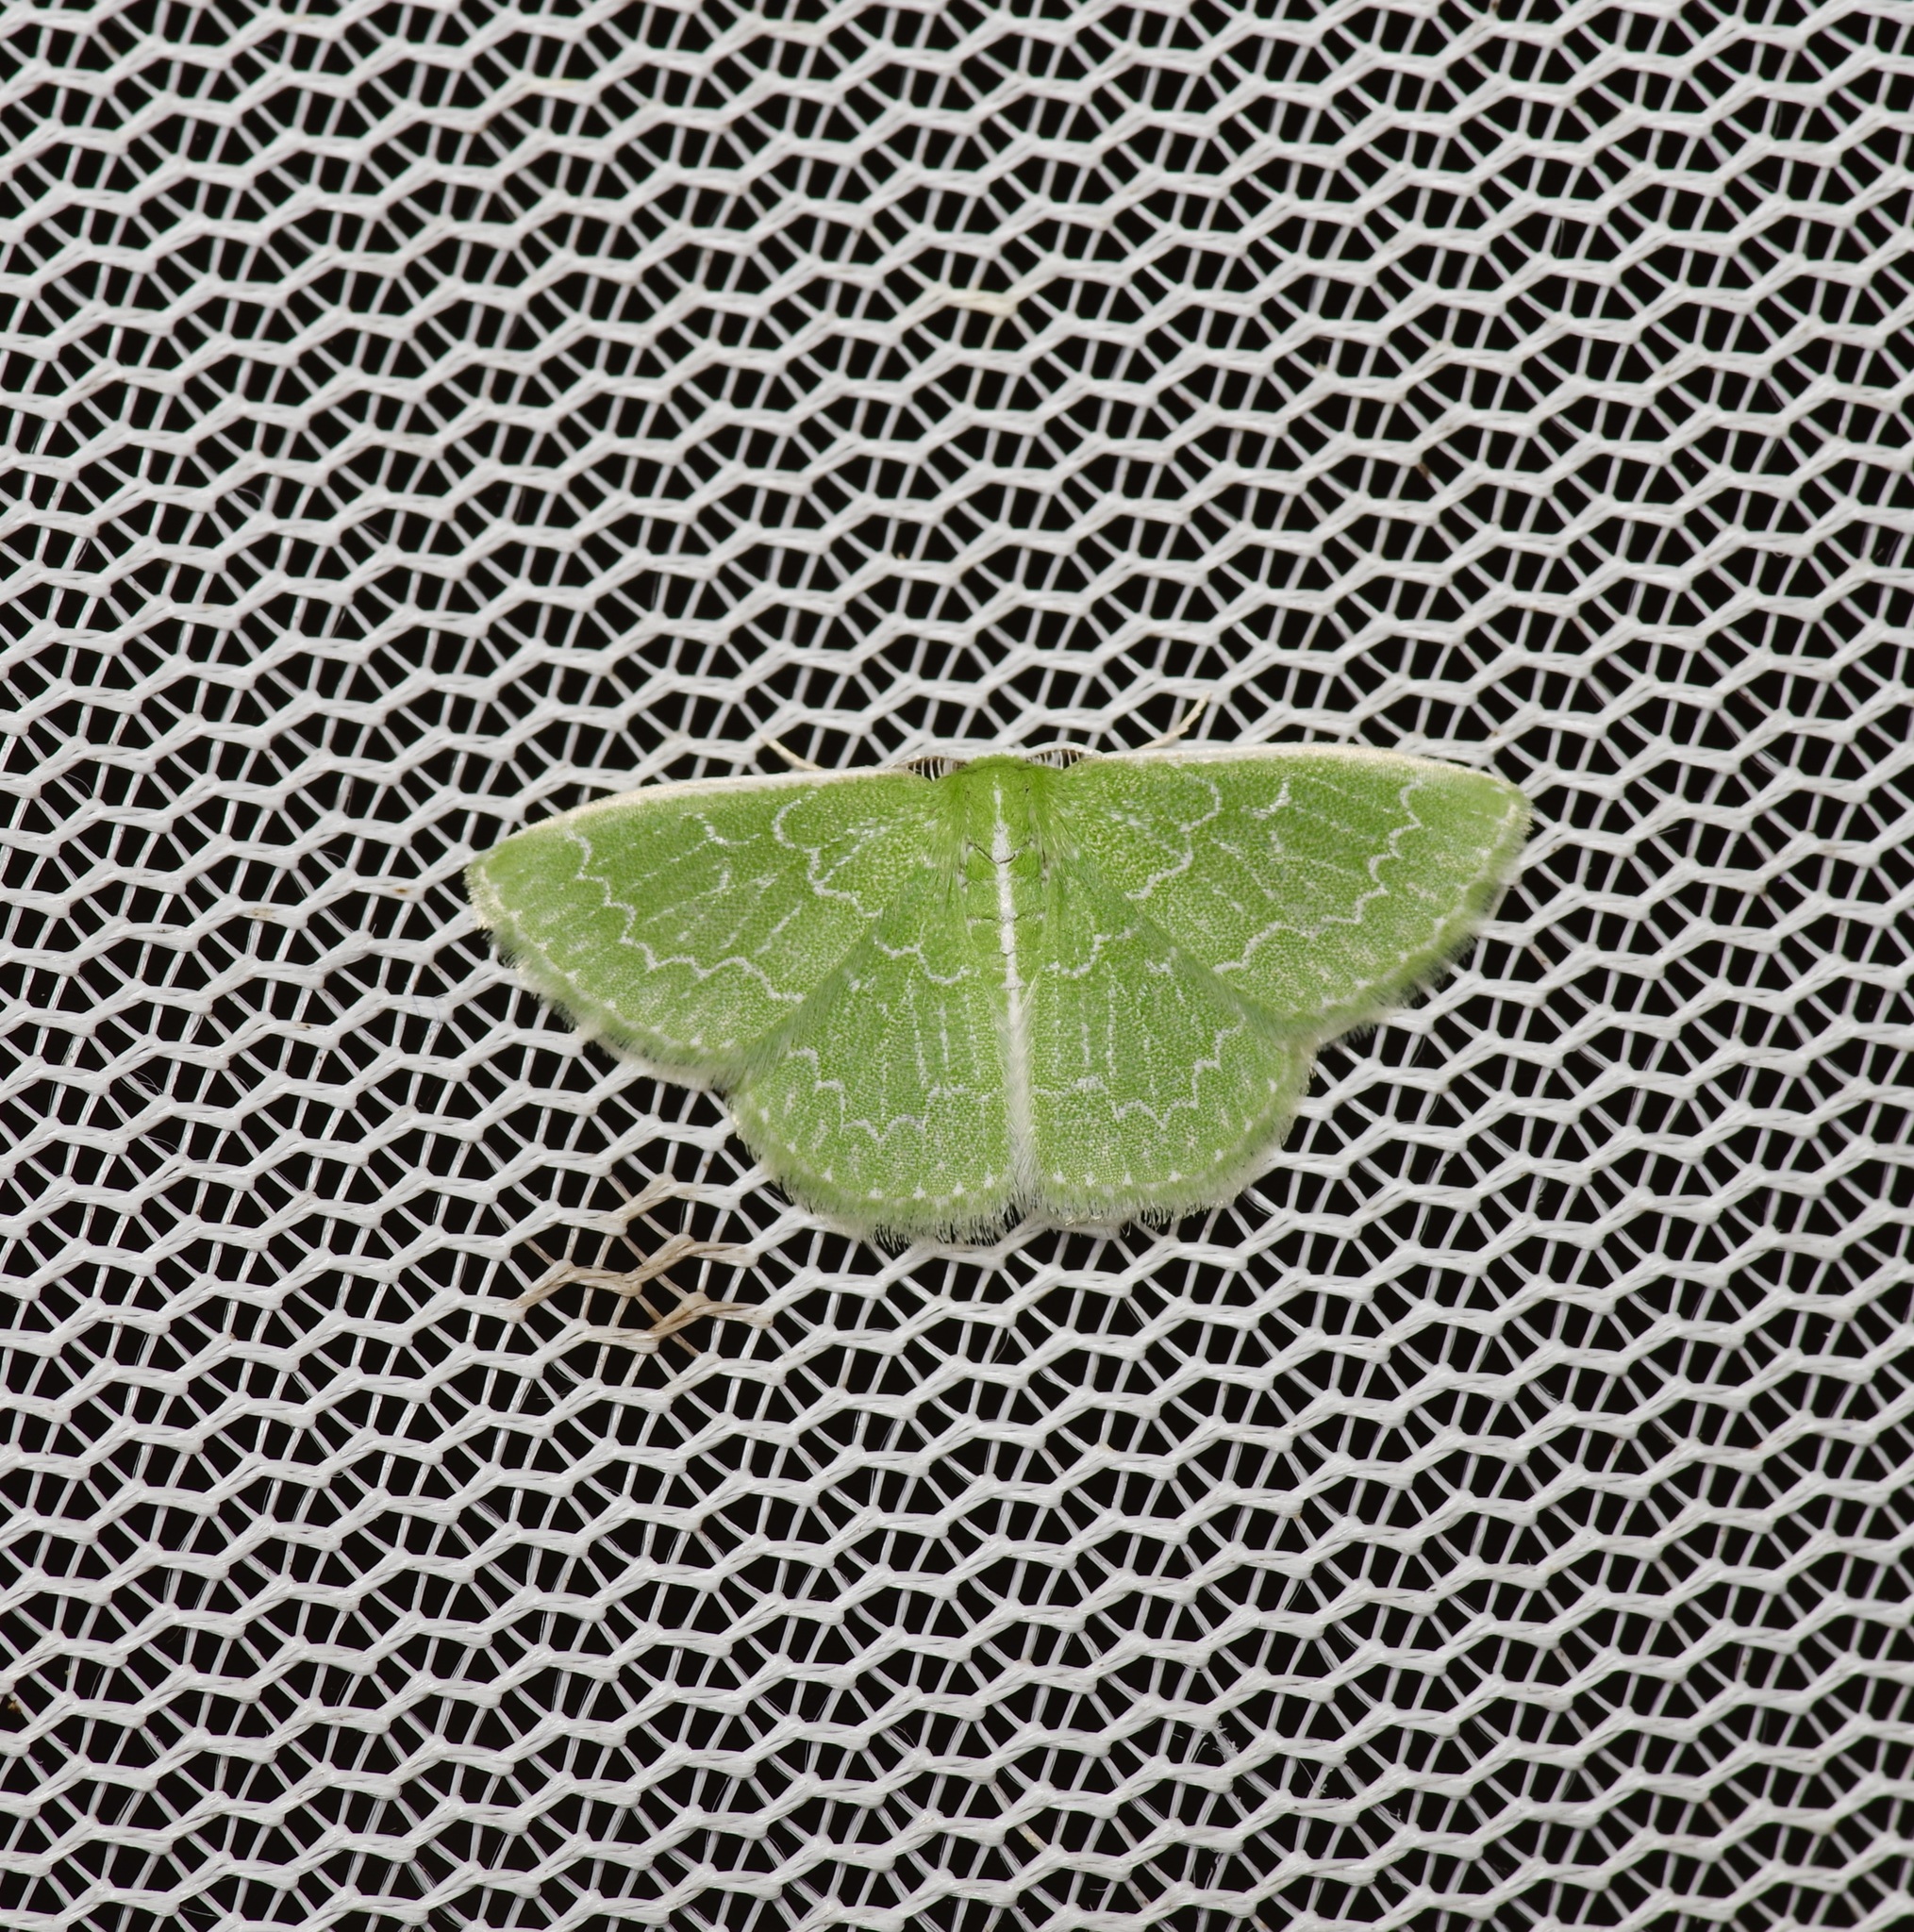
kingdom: Animalia
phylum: Arthropoda
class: Insecta
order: Lepidoptera
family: Geometridae
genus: Synchlora
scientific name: Synchlora frondaria
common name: Southern emerald
